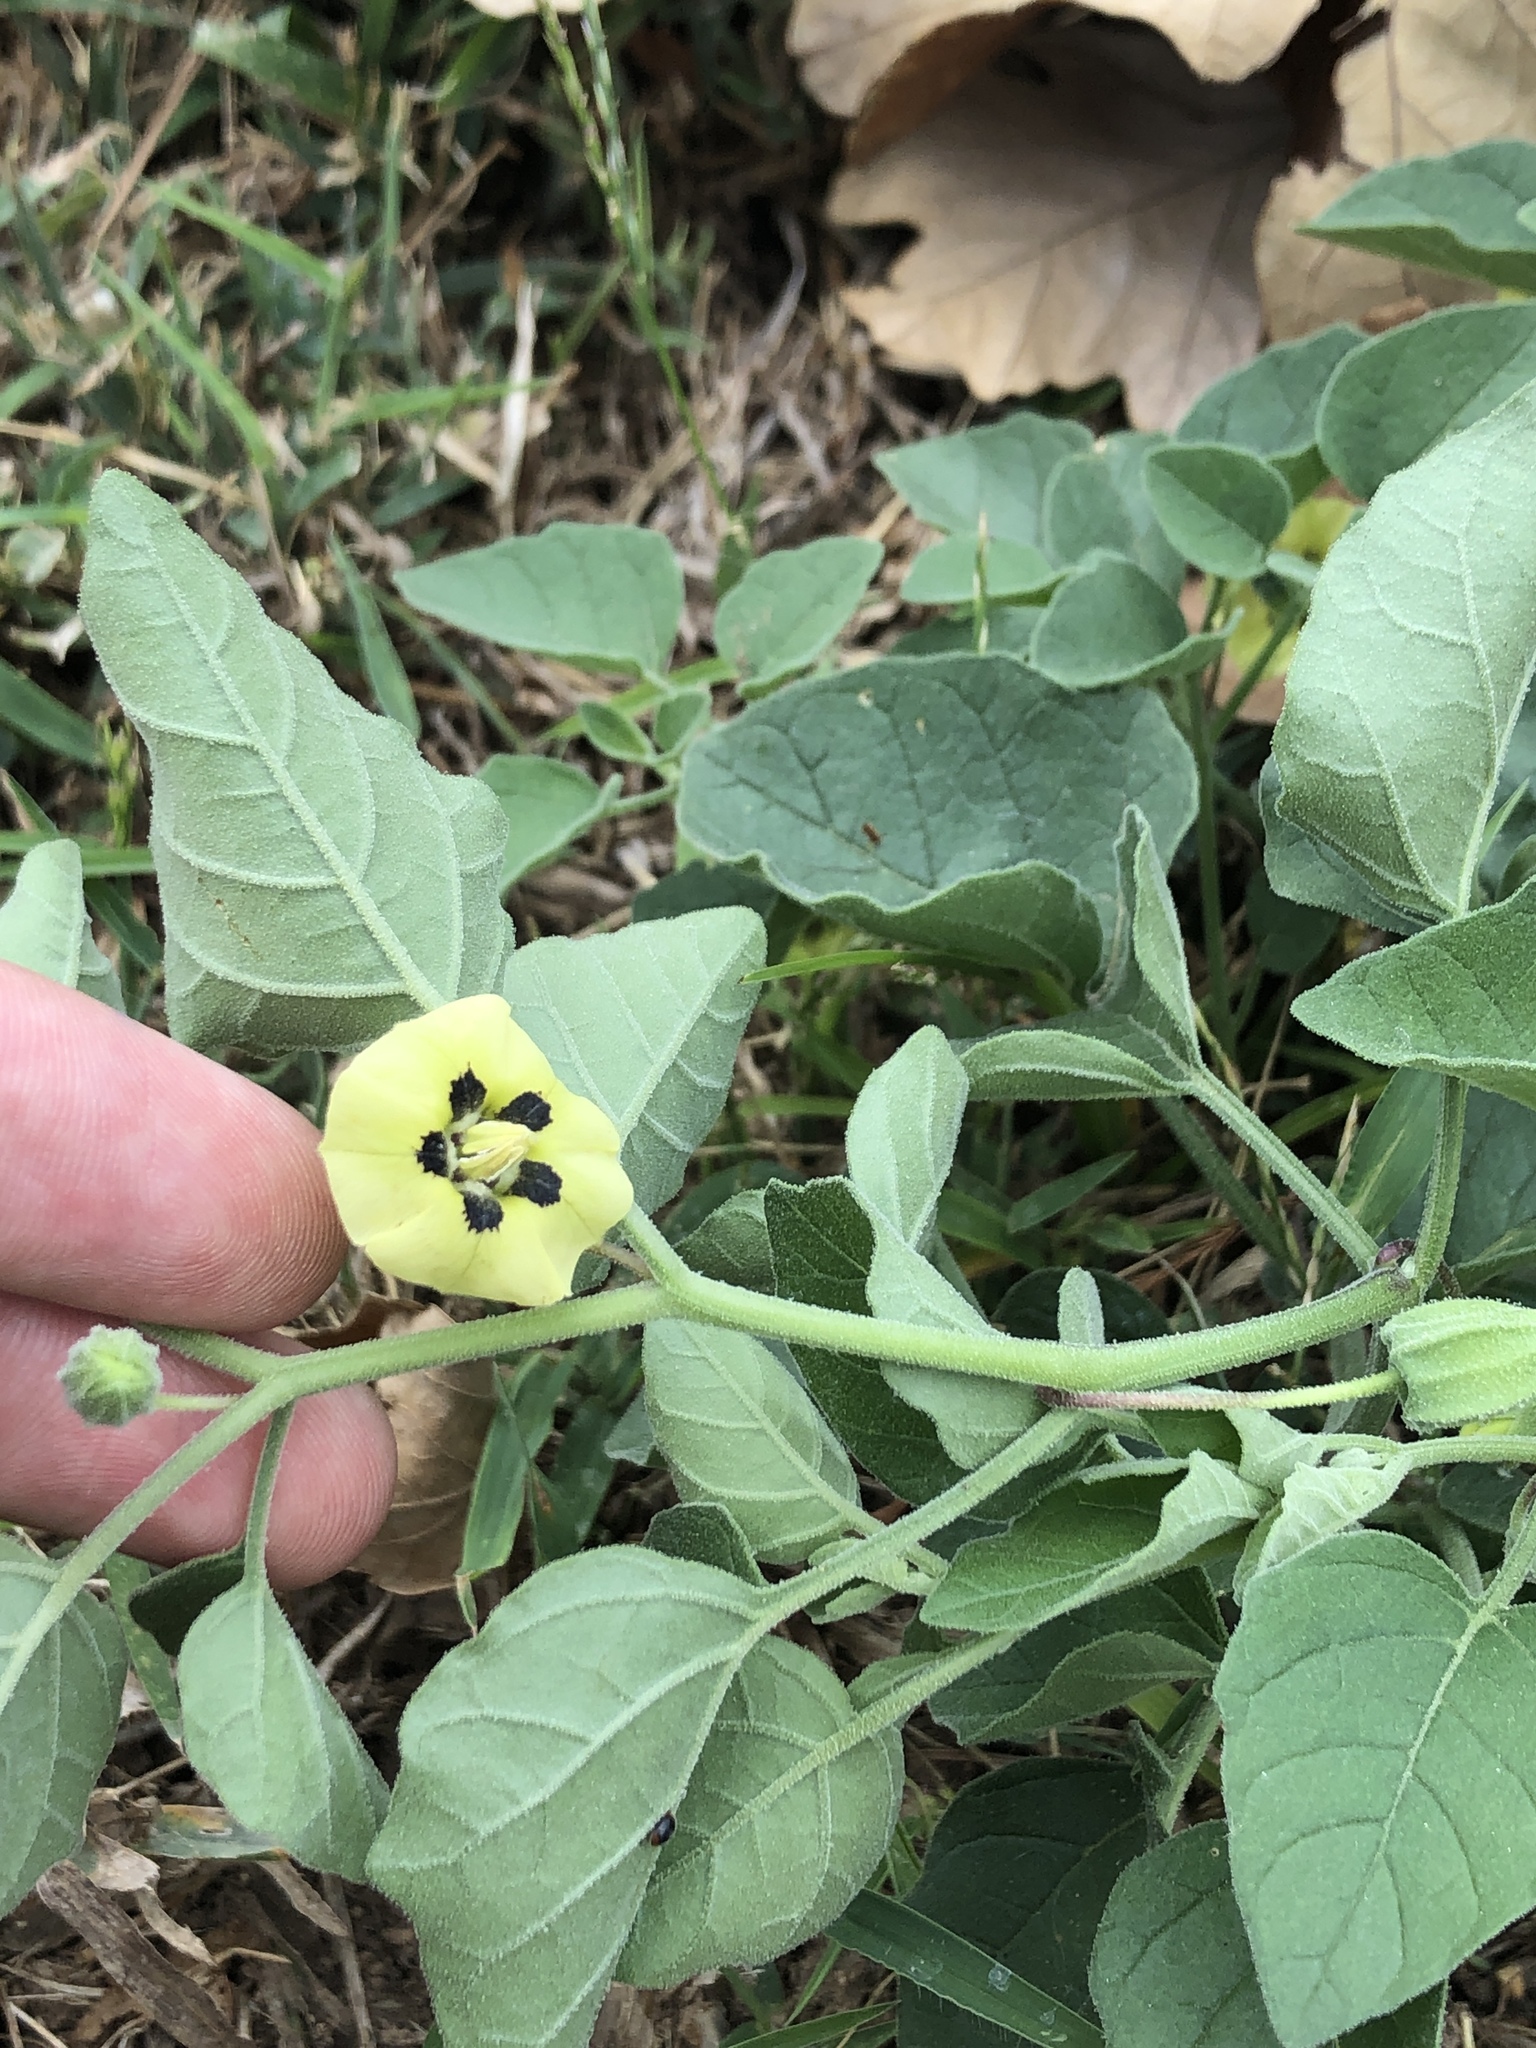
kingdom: Plantae
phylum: Tracheophyta
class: Magnoliopsida
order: Solanales
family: Solanaceae
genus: Physalis
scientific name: Physalis mollis
